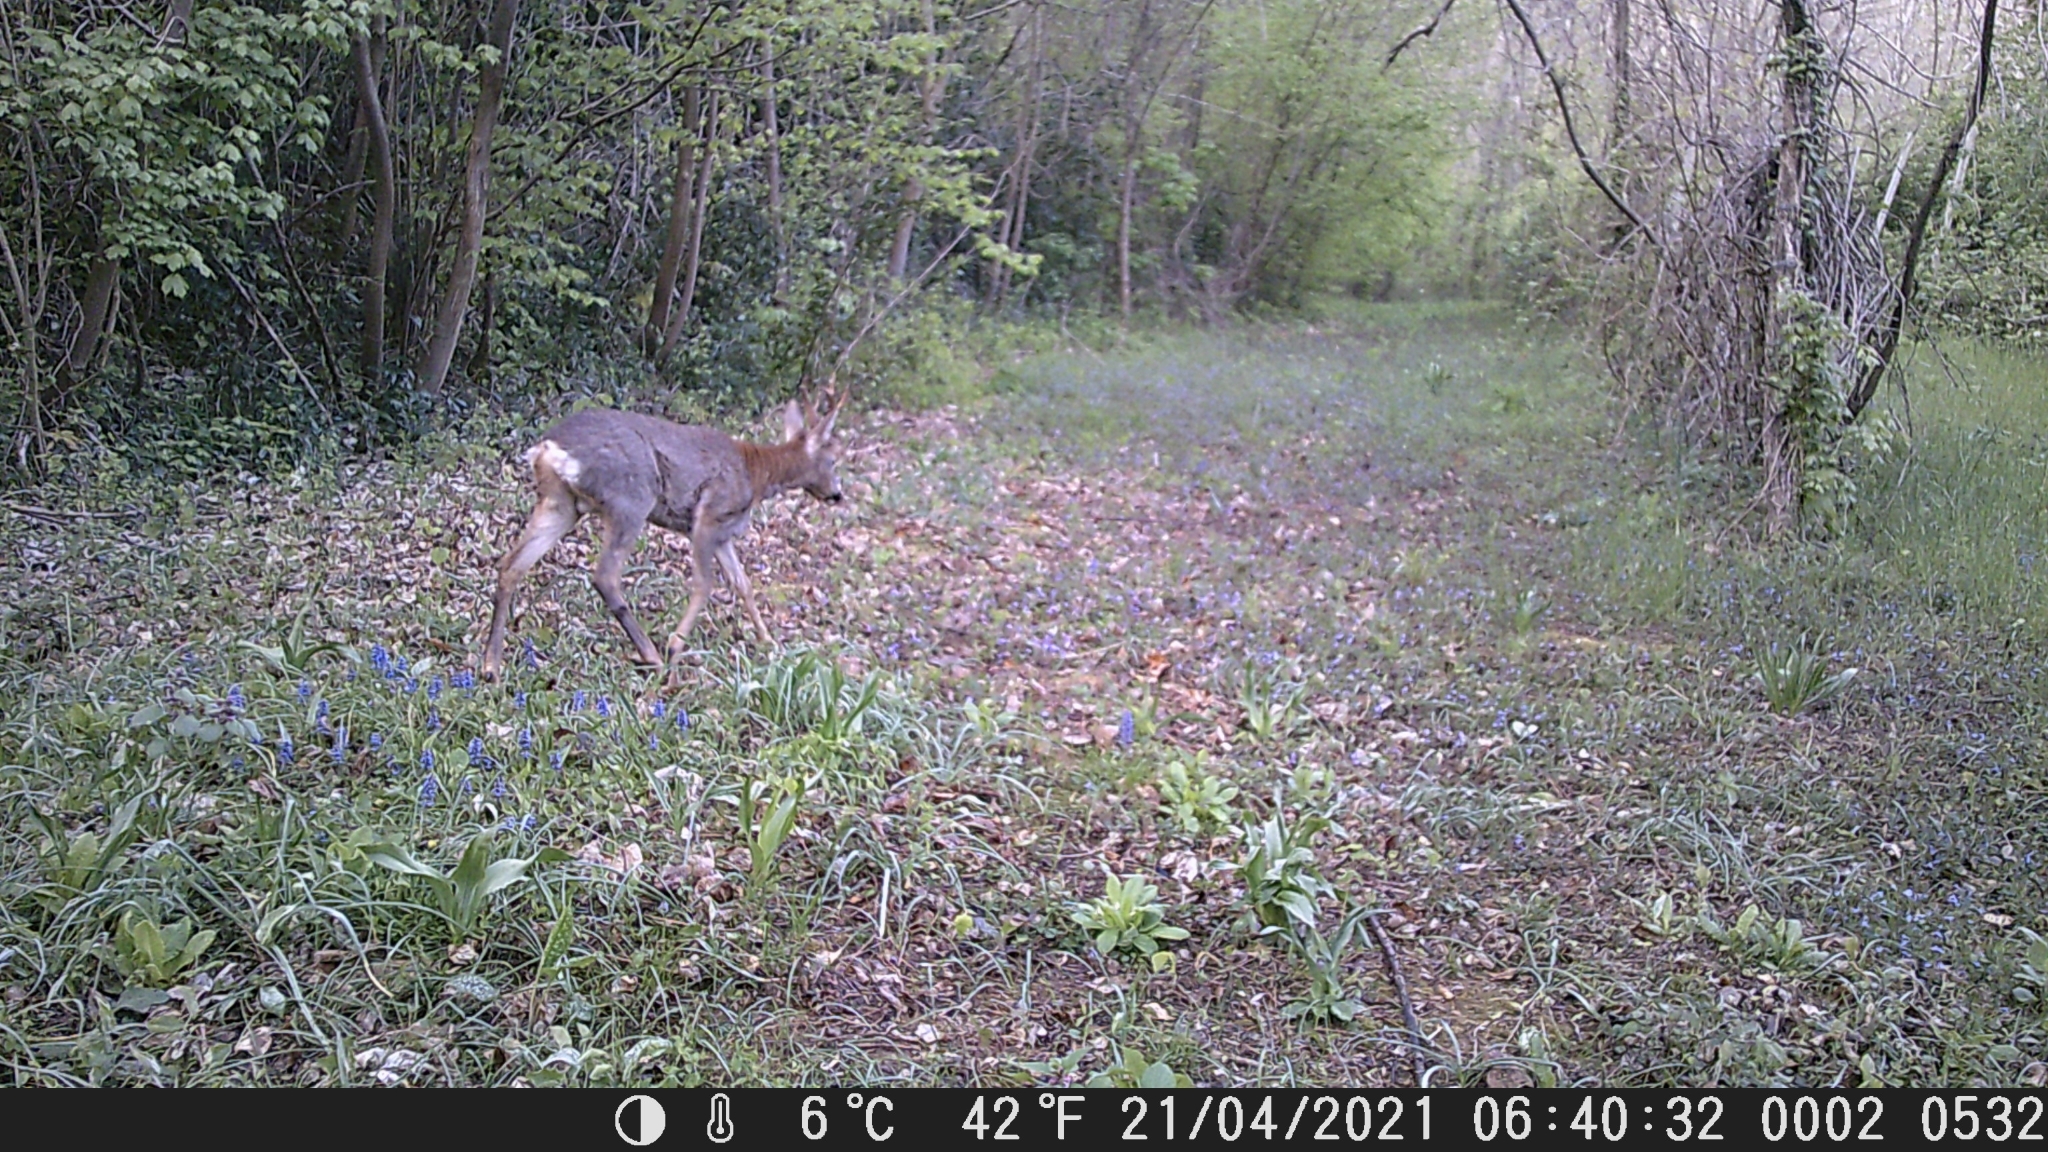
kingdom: Animalia
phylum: Chordata
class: Mammalia
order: Artiodactyla
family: Cervidae
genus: Capreolus
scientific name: Capreolus capreolus
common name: Western roe deer
